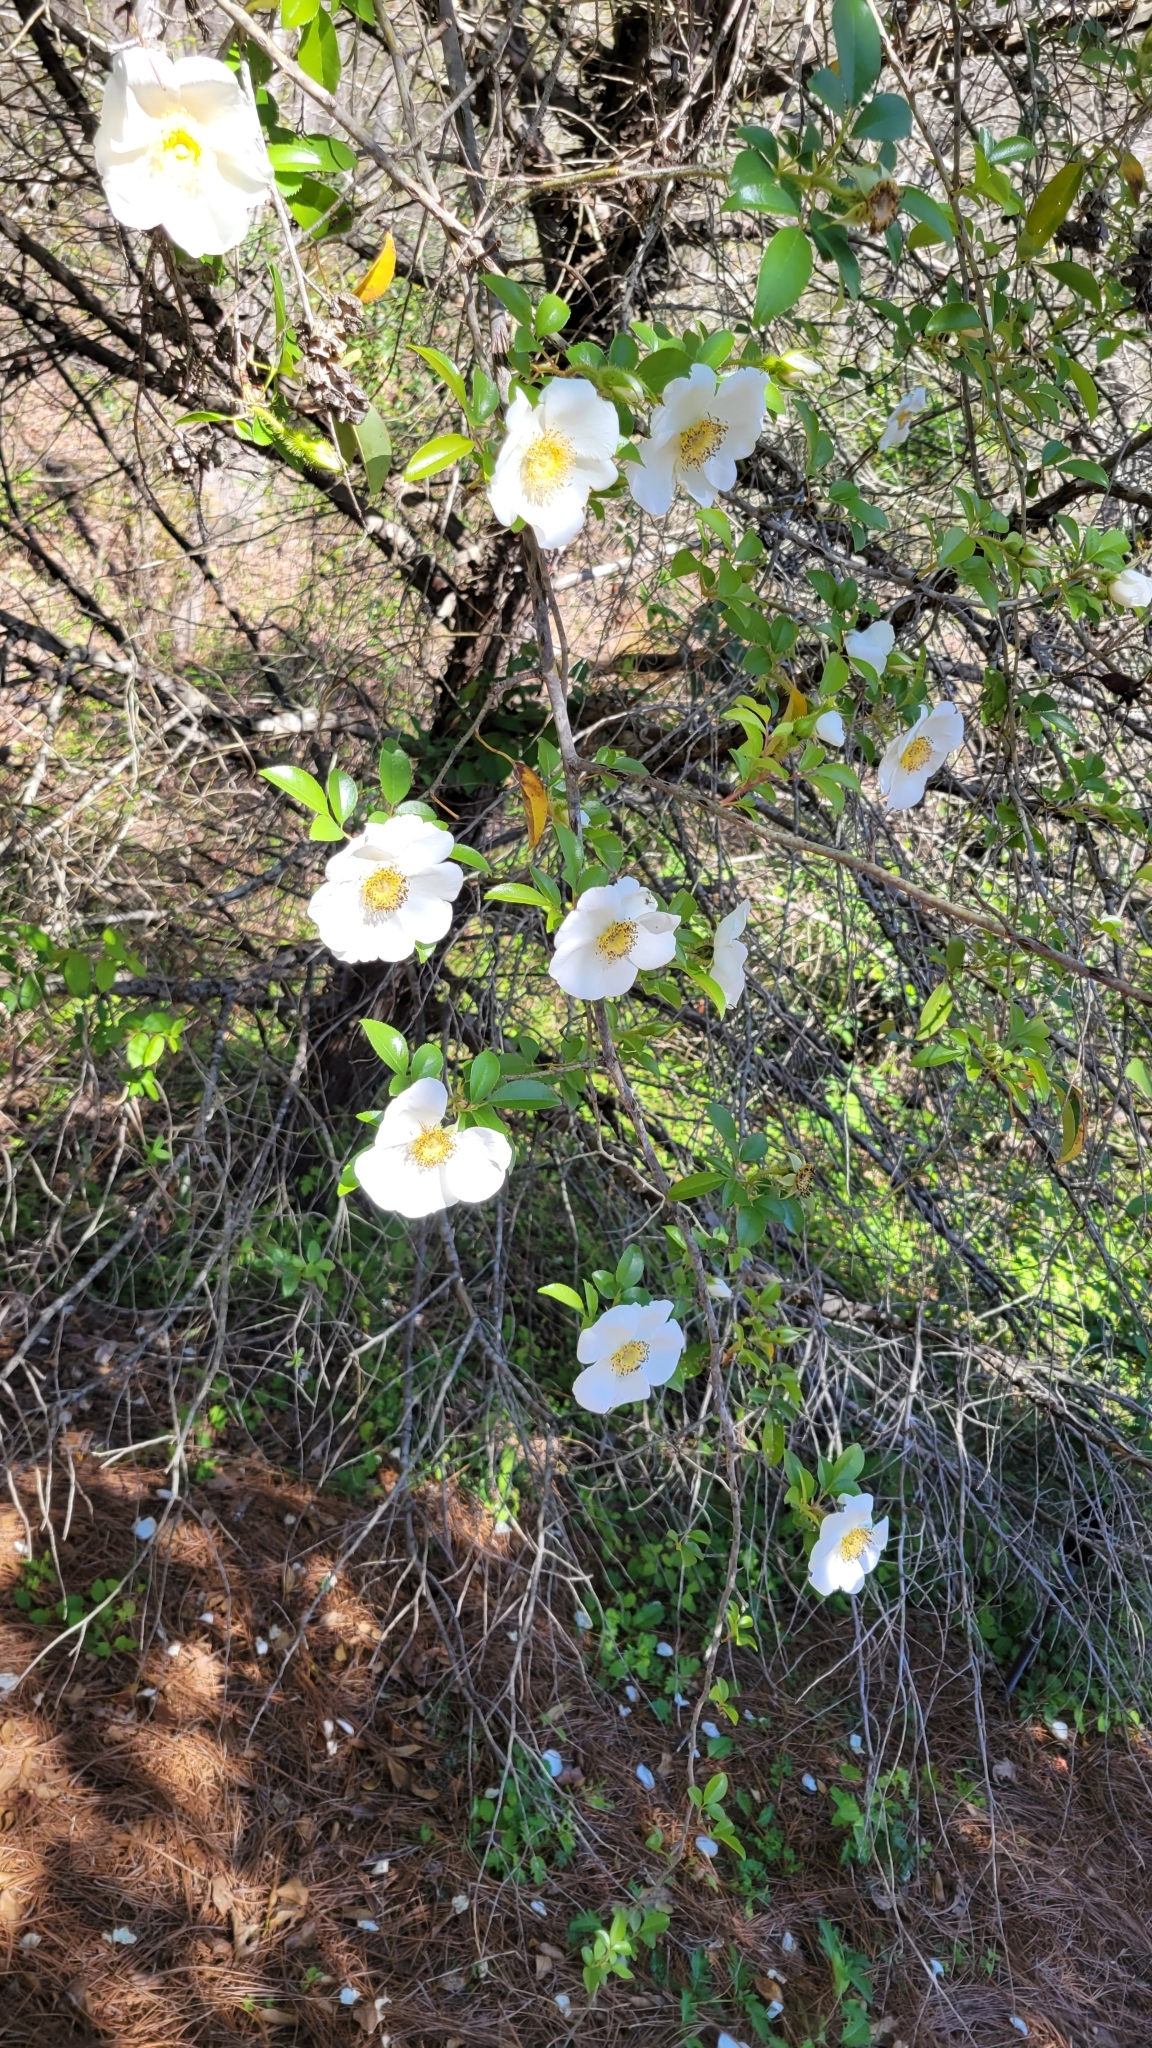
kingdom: Plantae
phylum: Tracheophyta
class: Magnoliopsida
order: Rosales
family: Rosaceae
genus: Rosa
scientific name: Rosa laevigata
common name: Cherokee rose
